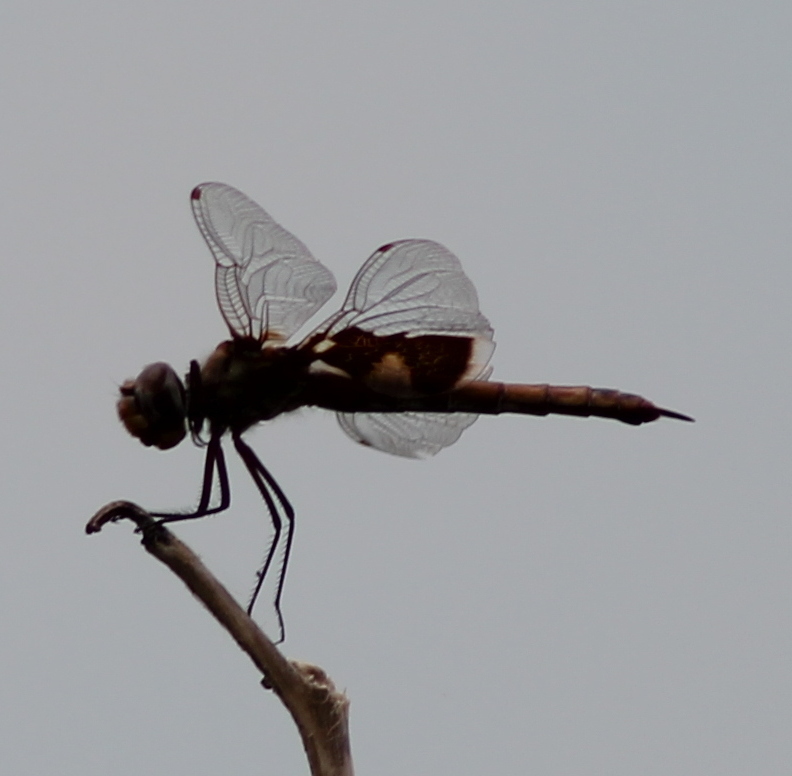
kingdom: Animalia
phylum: Arthropoda
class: Insecta
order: Odonata
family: Libellulidae
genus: Tramea
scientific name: Tramea onusta
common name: Red saddlebags
